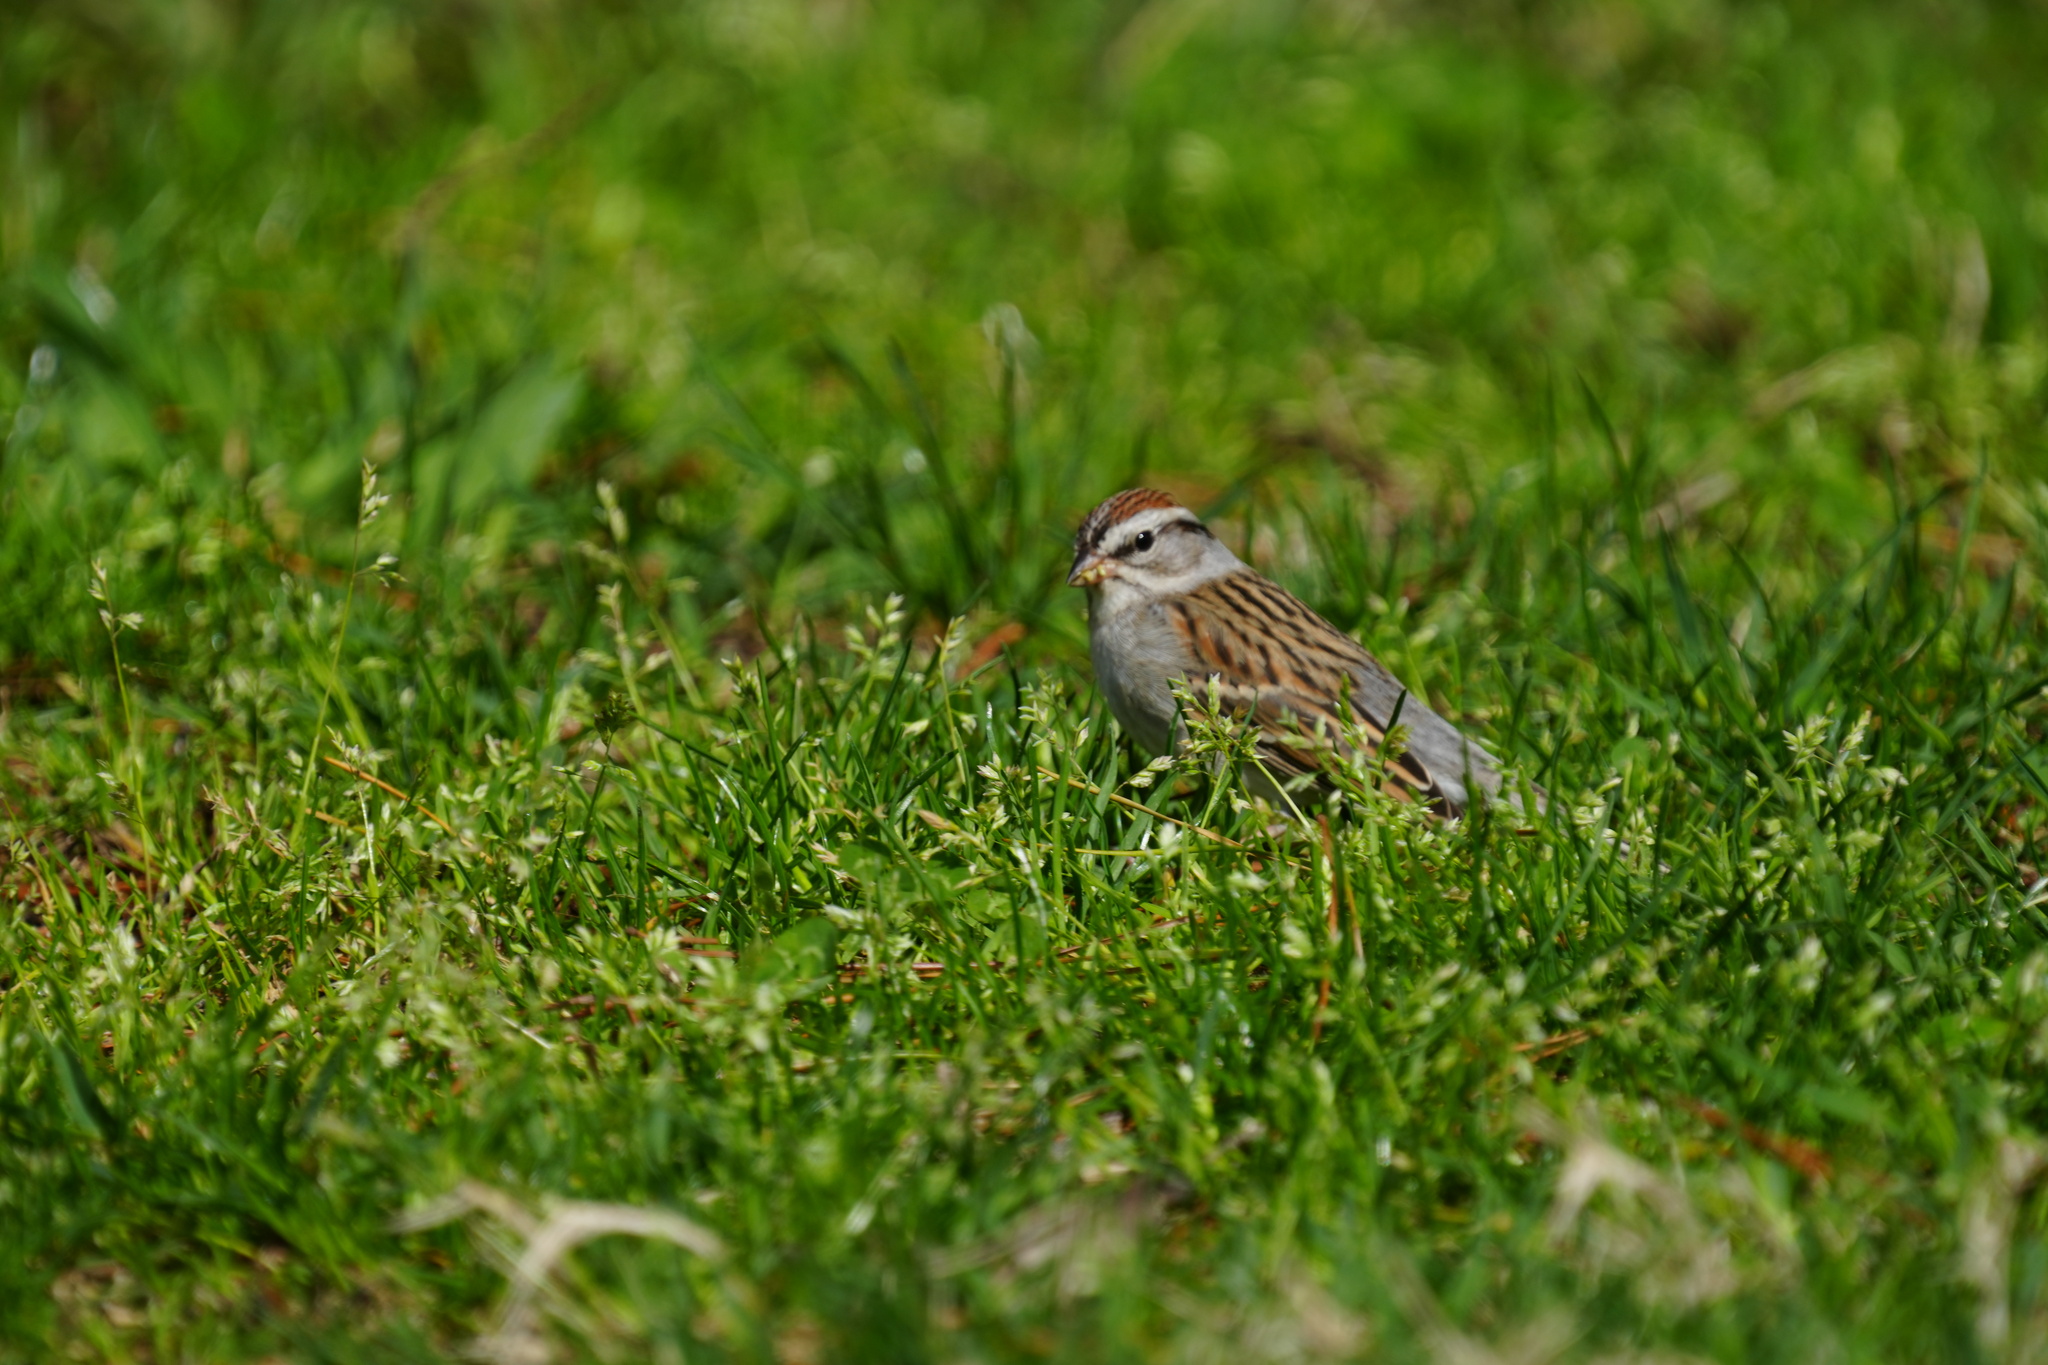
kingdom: Animalia
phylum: Chordata
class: Aves
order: Passeriformes
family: Passerellidae
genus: Spizella
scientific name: Spizella passerina
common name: Chipping sparrow
